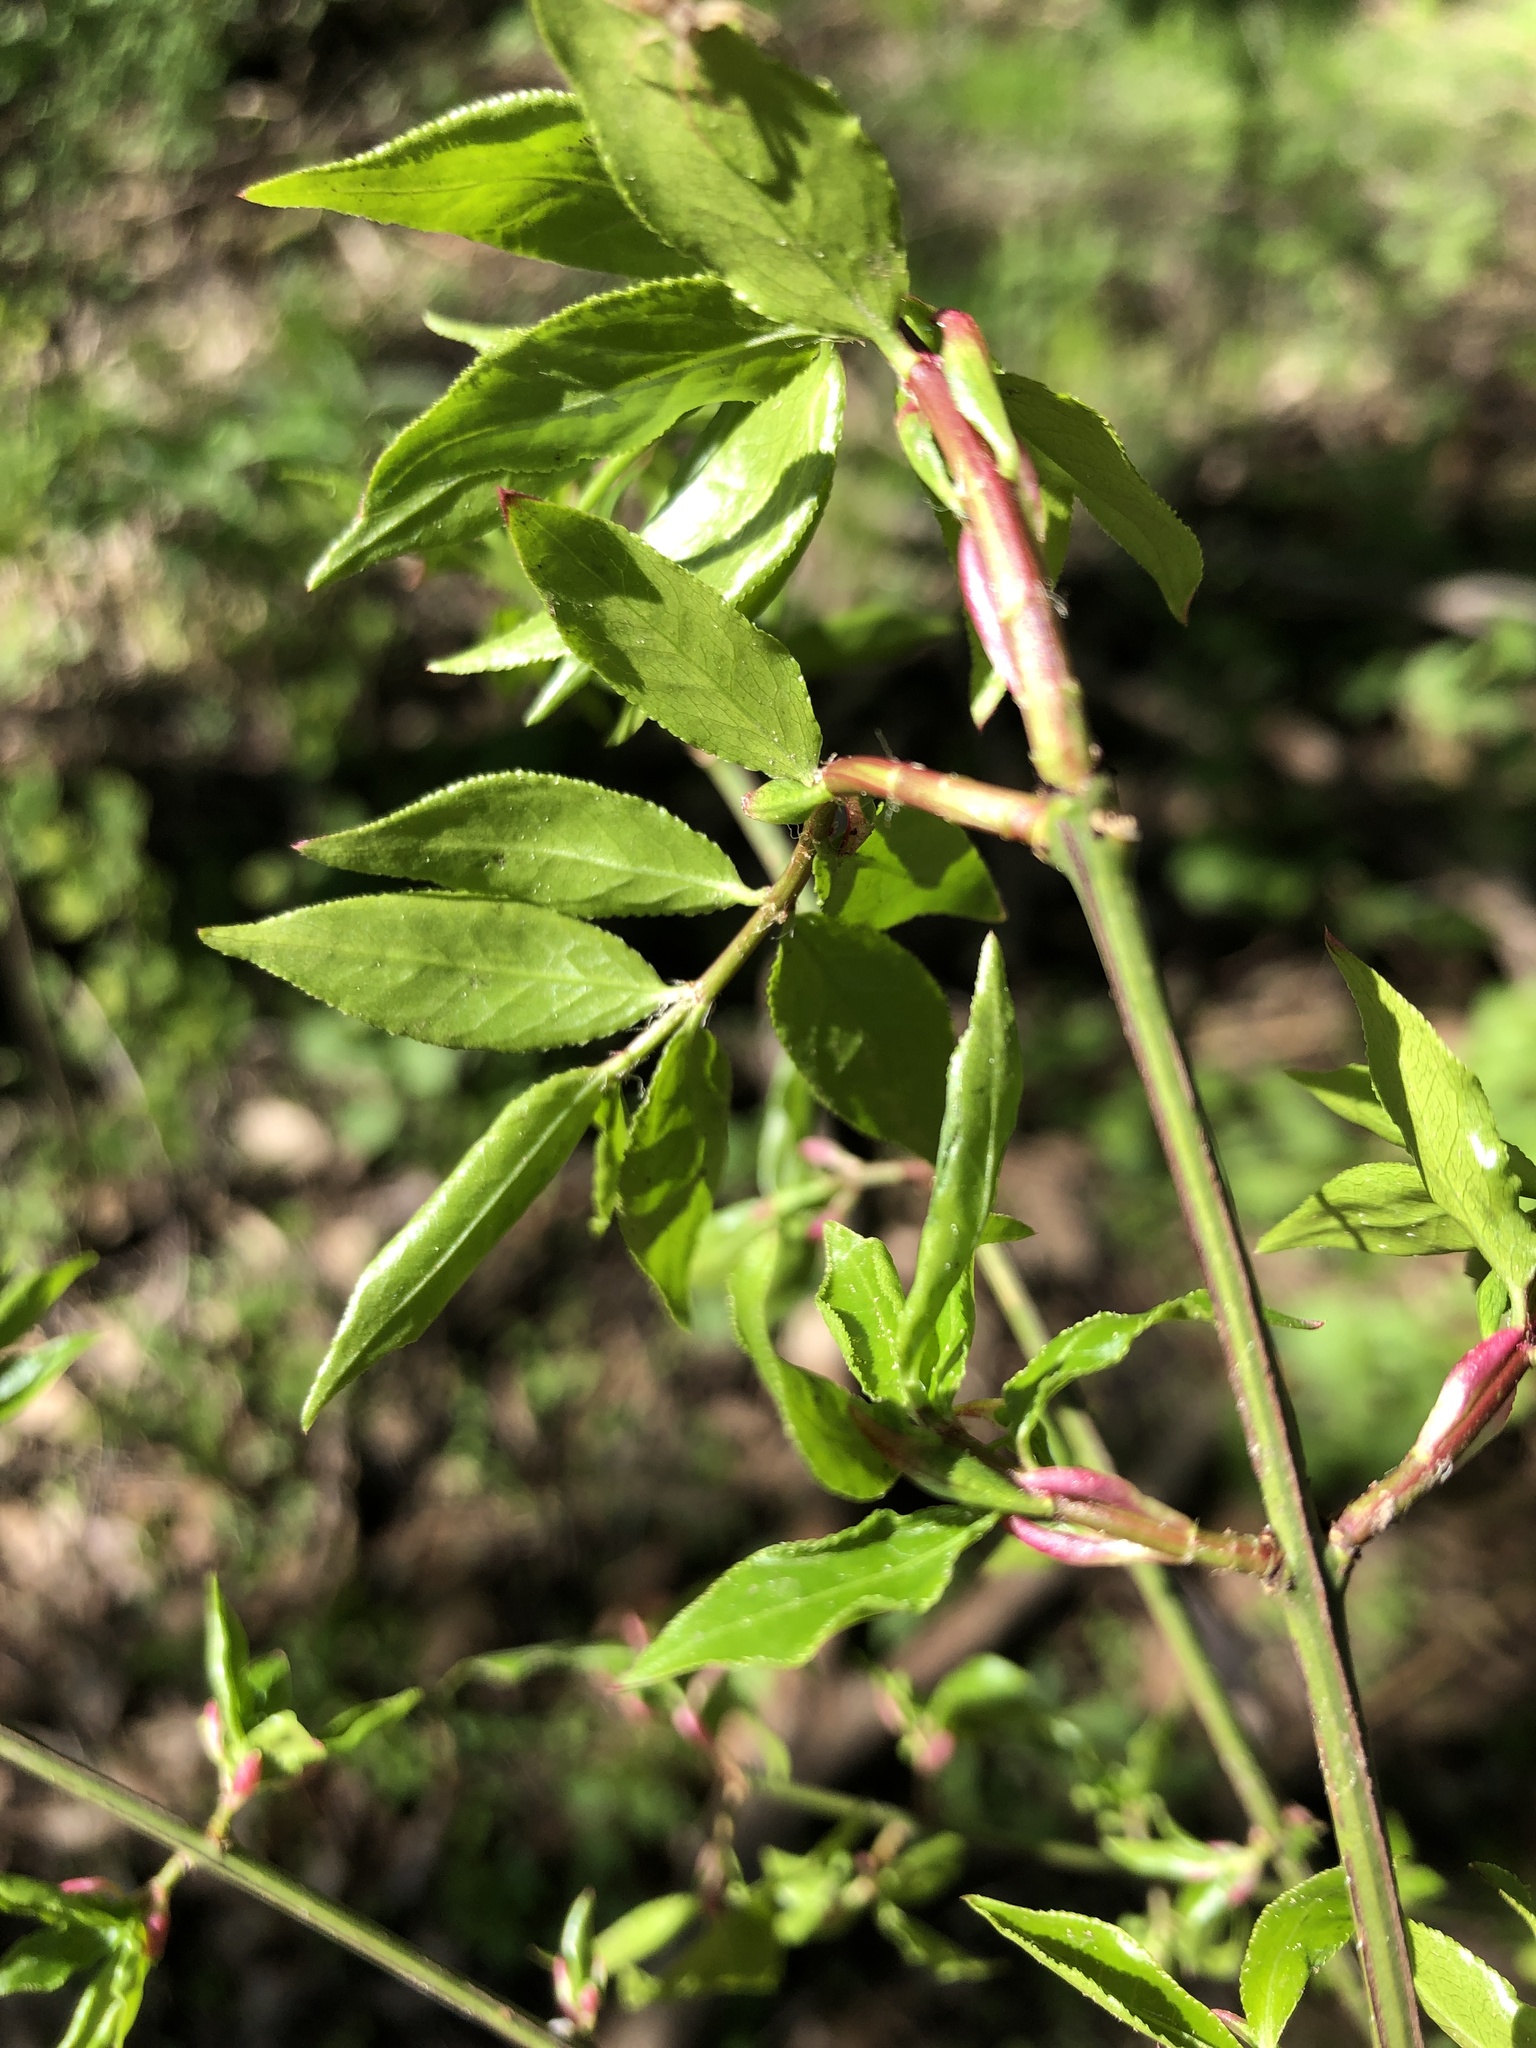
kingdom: Plantae
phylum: Tracheophyta
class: Magnoliopsida
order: Celastrales
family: Celastraceae
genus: Euonymus
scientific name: Euonymus alatus
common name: Winged euonymus
